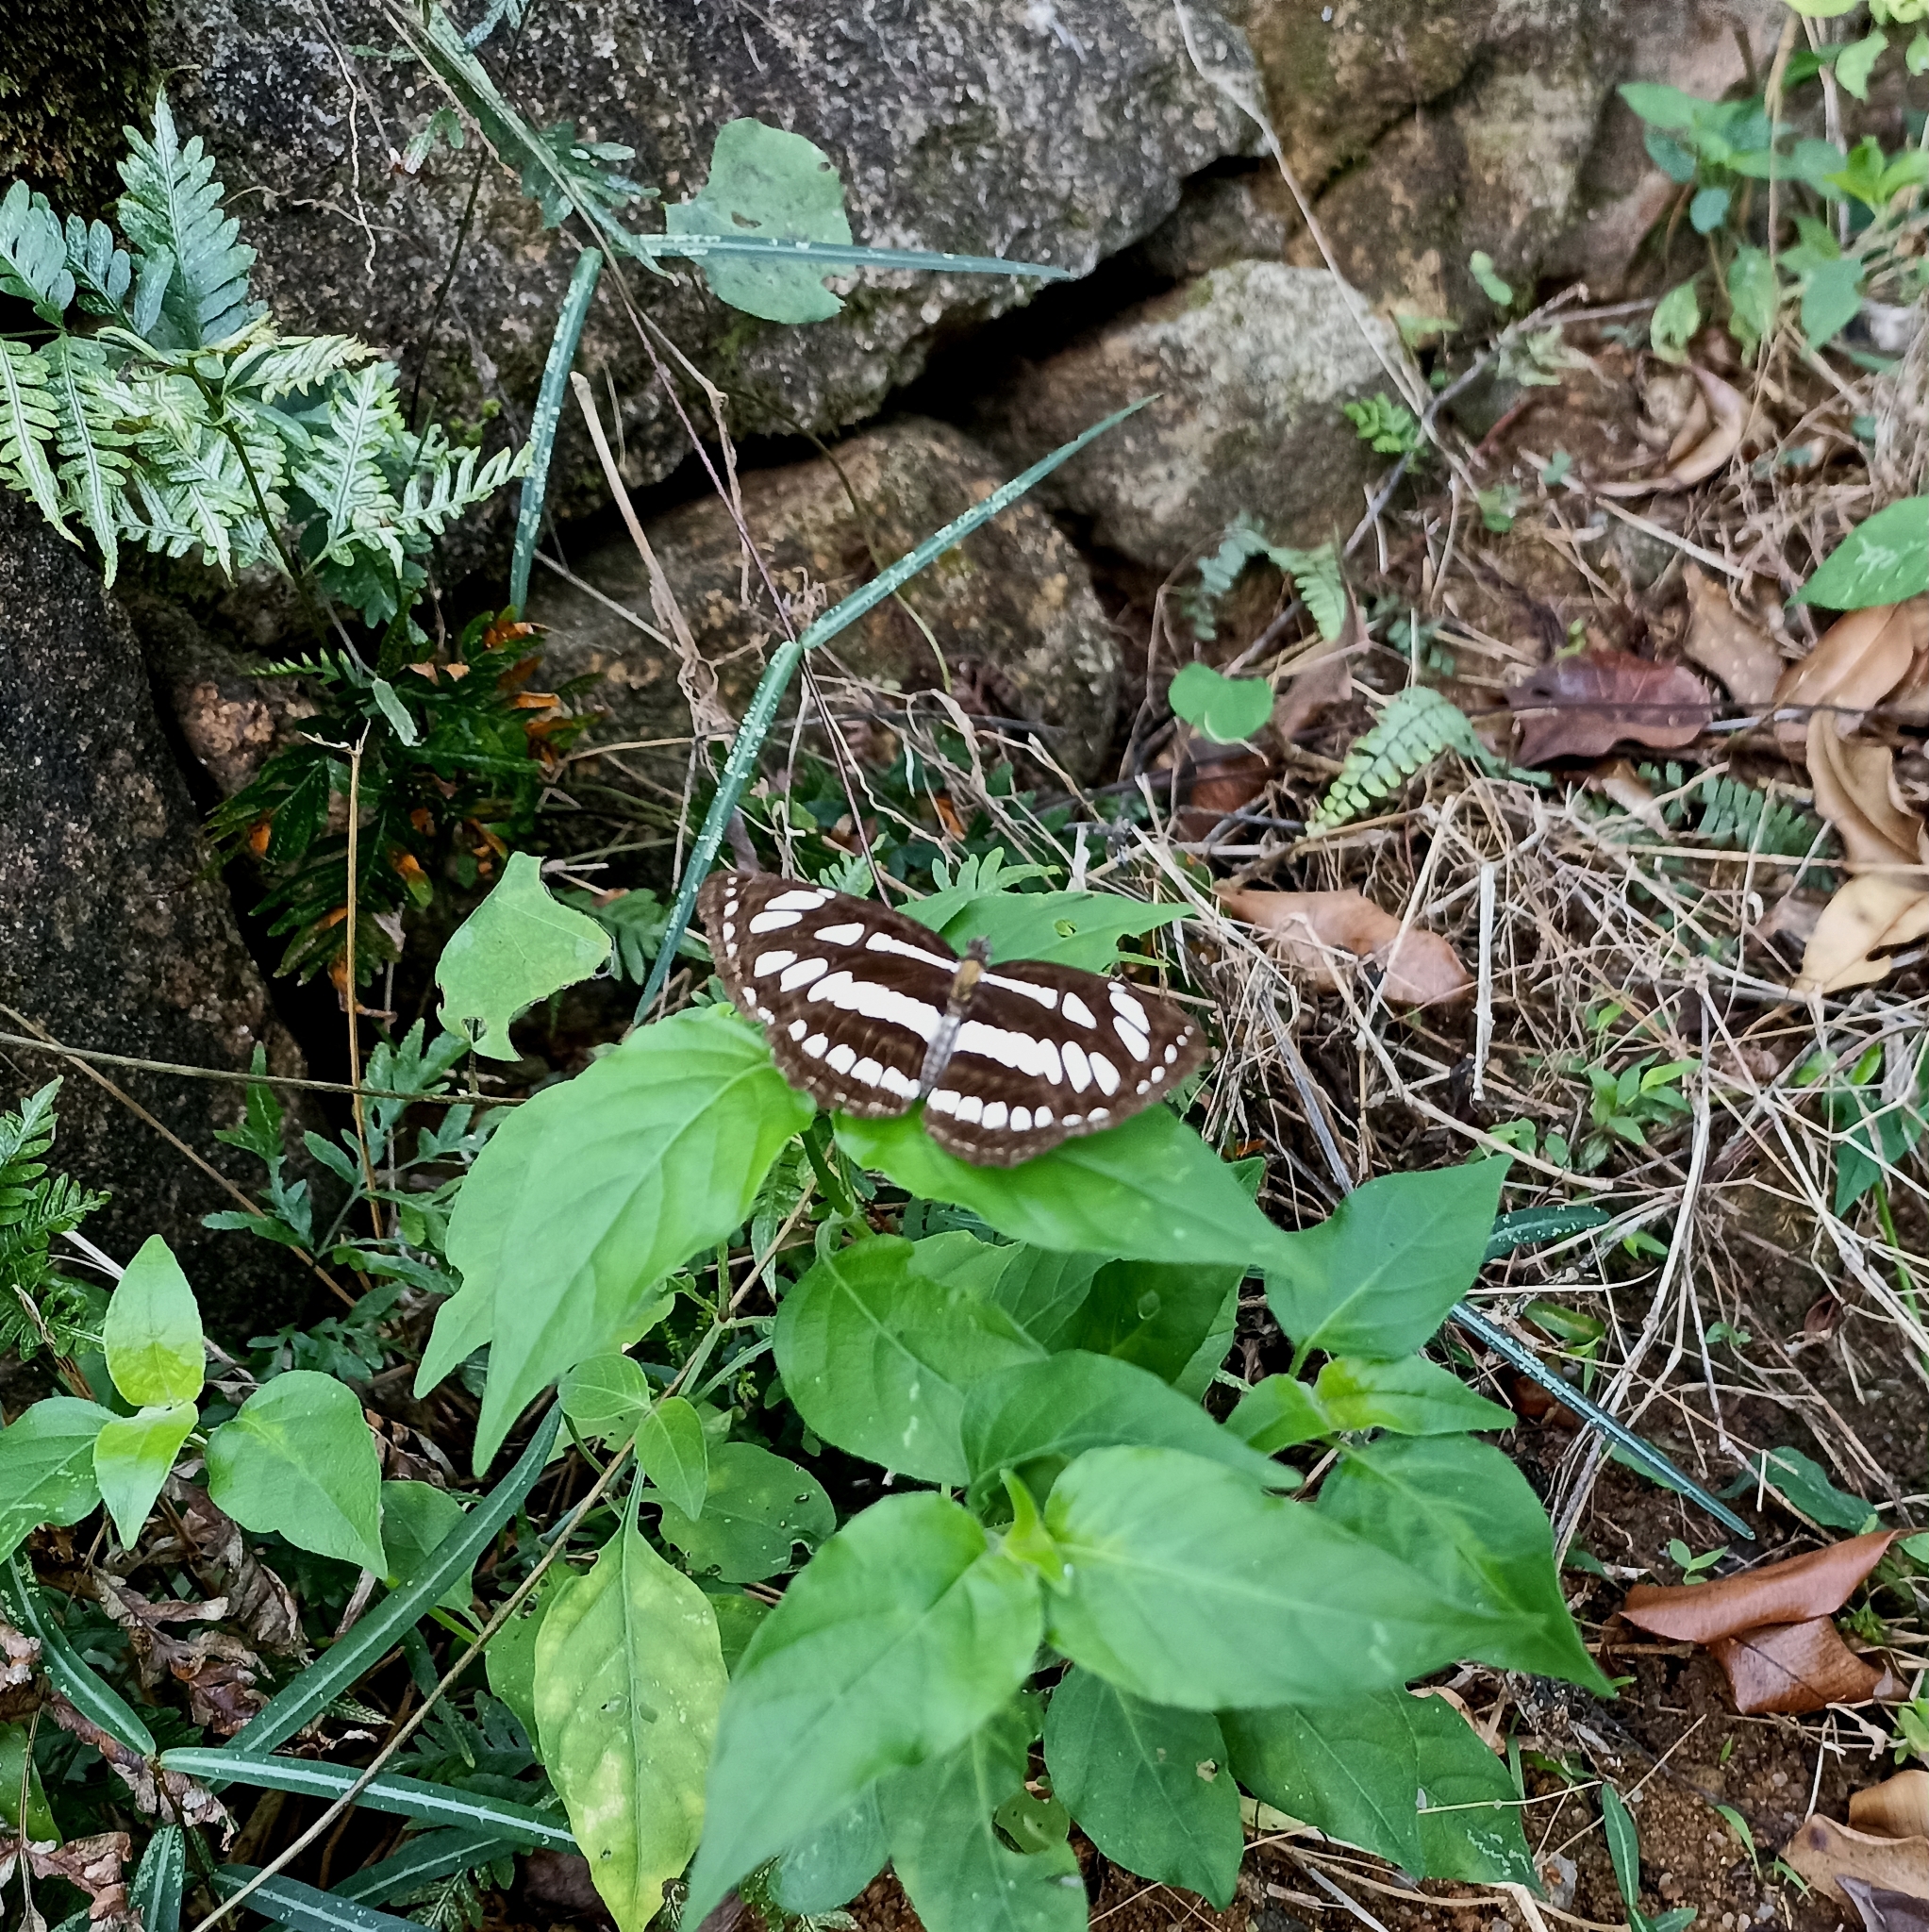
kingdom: Animalia
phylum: Arthropoda
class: Insecta
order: Lepidoptera
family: Nymphalidae
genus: Neptis
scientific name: Neptis hylas
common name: Common sailer
